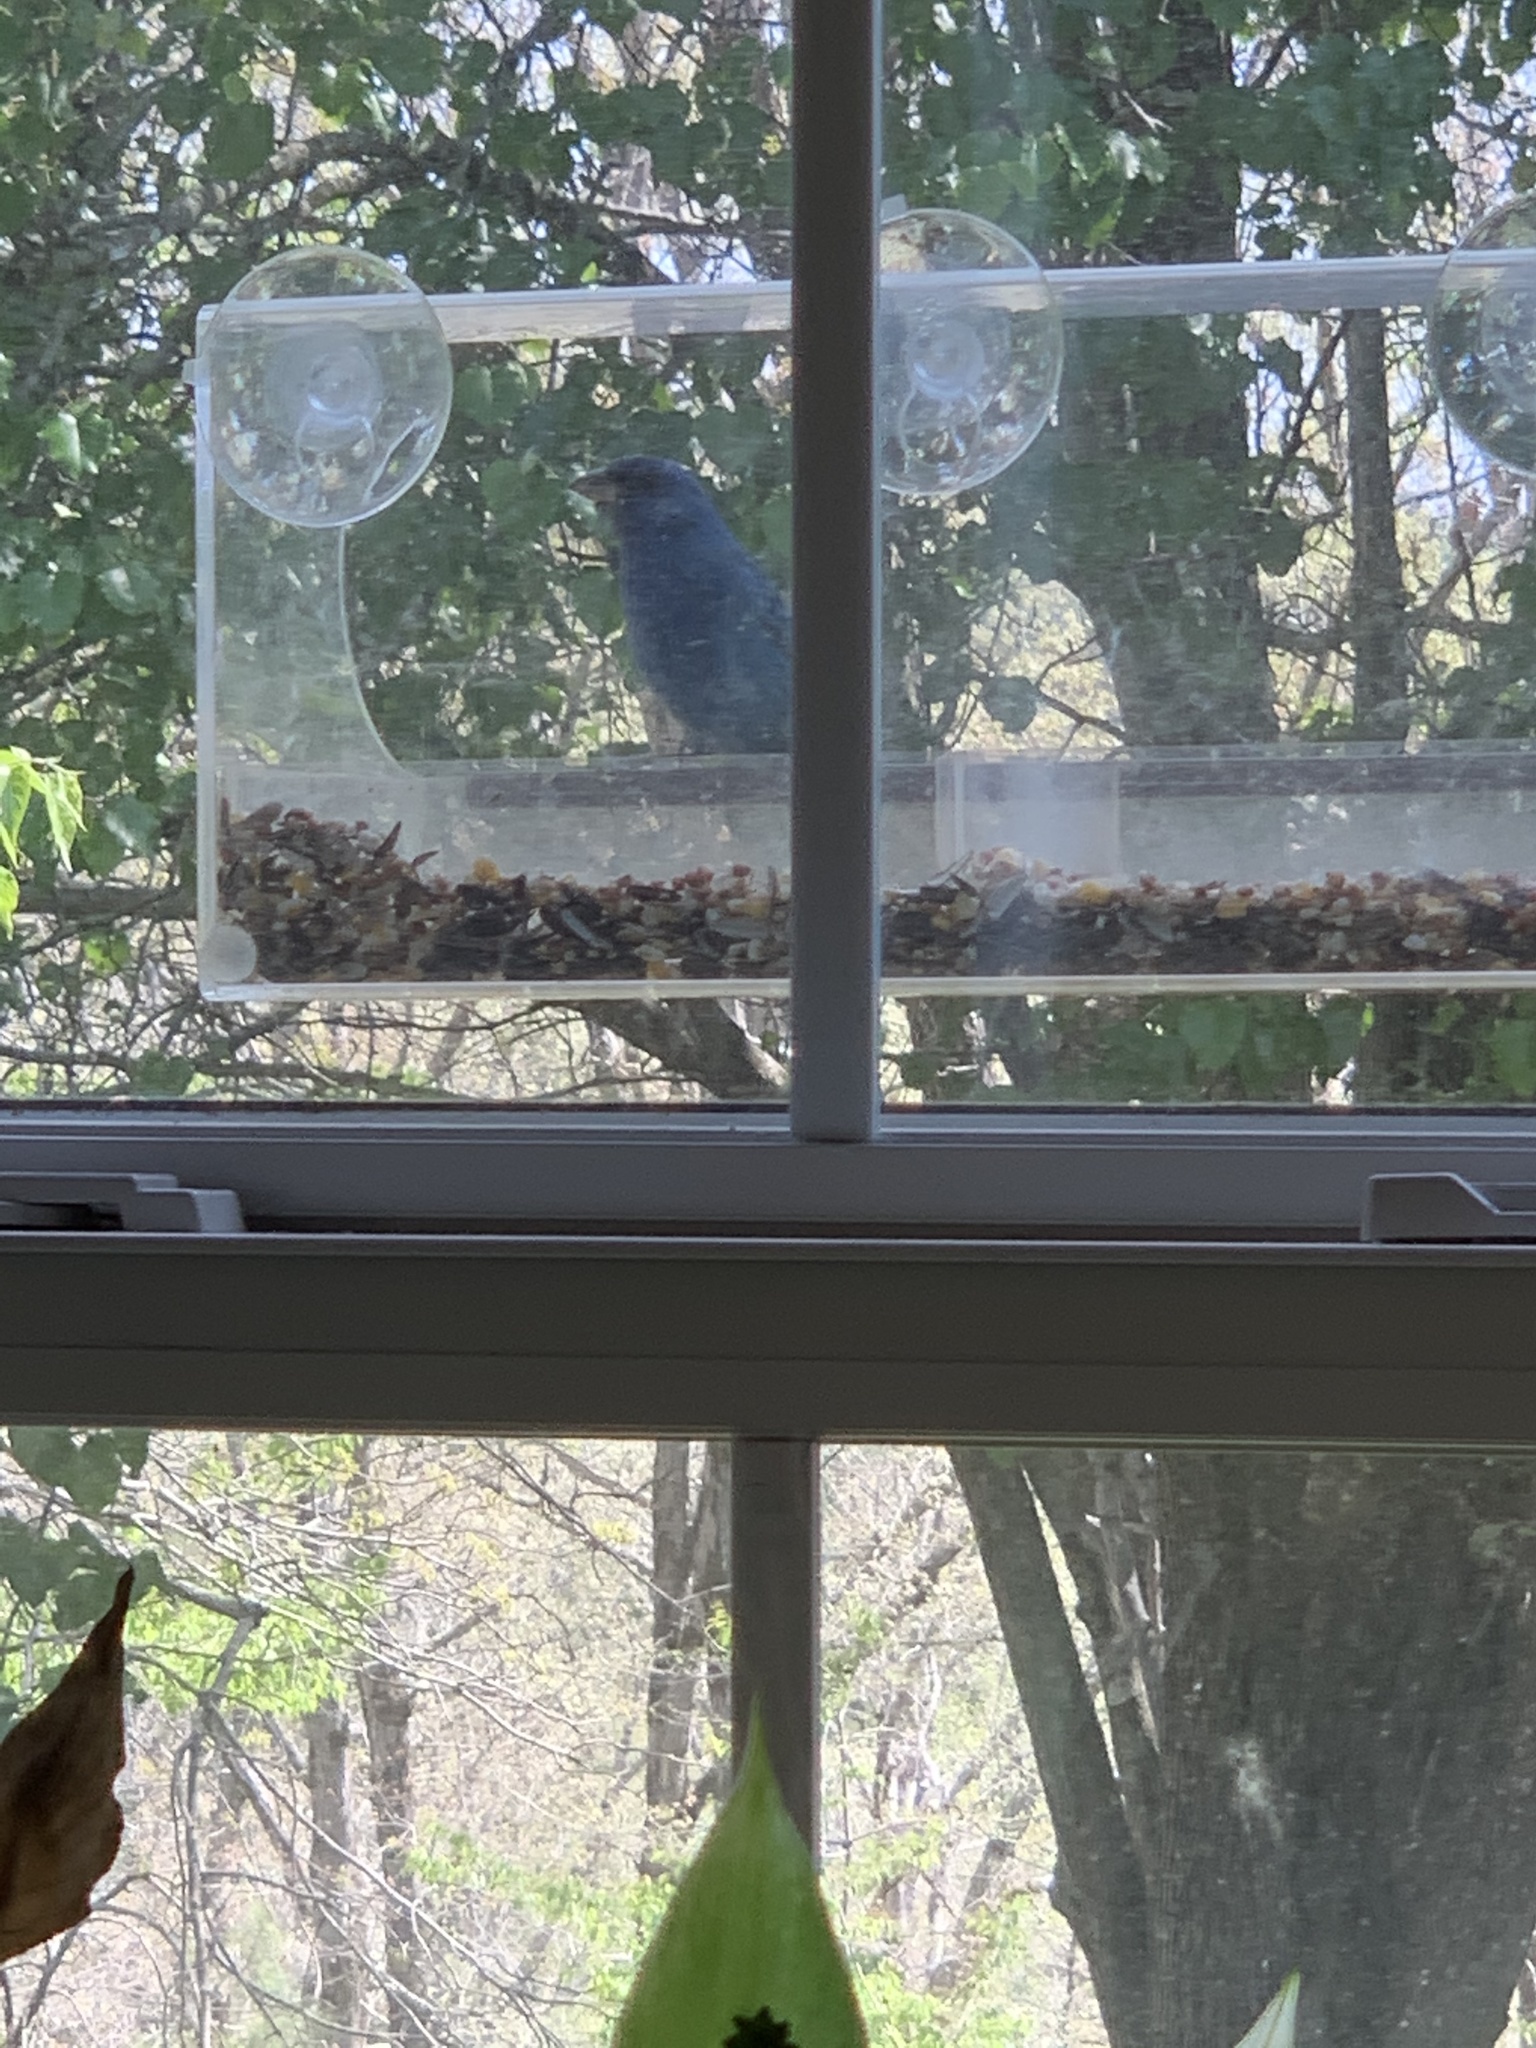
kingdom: Animalia
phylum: Chordata
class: Aves
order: Passeriformes
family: Cardinalidae
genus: Passerina
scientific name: Passerina cyanea
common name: Indigo bunting
